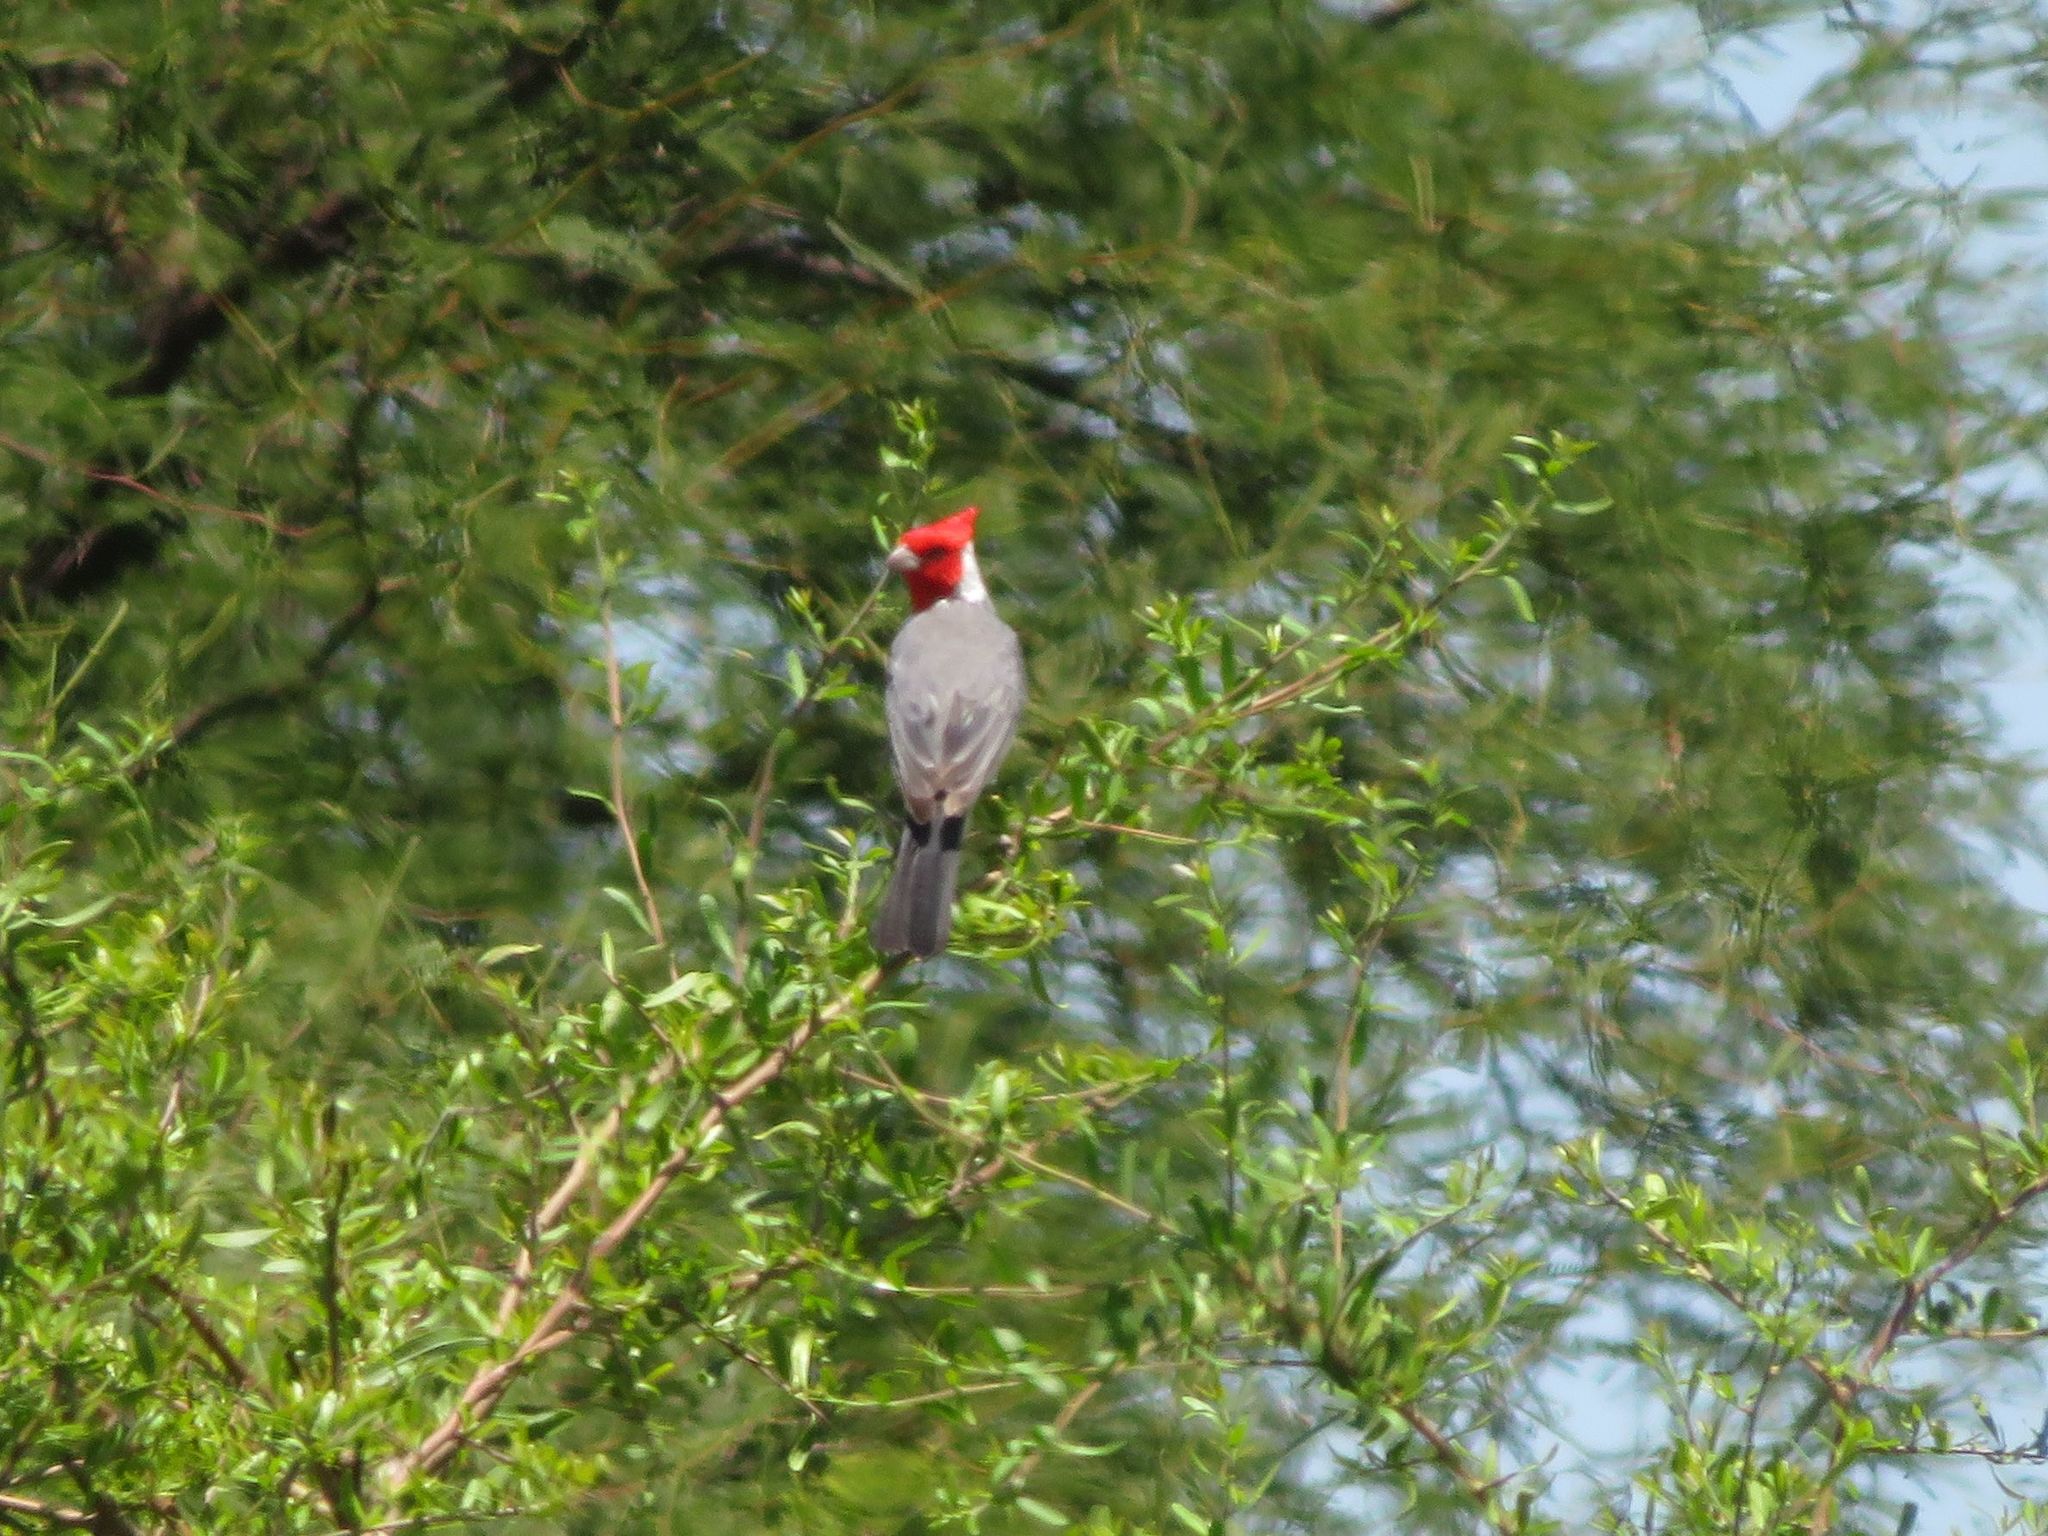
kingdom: Animalia
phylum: Chordata
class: Aves
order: Passeriformes
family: Thraupidae
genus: Paroaria
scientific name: Paroaria coronata
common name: Red-crested cardinal
